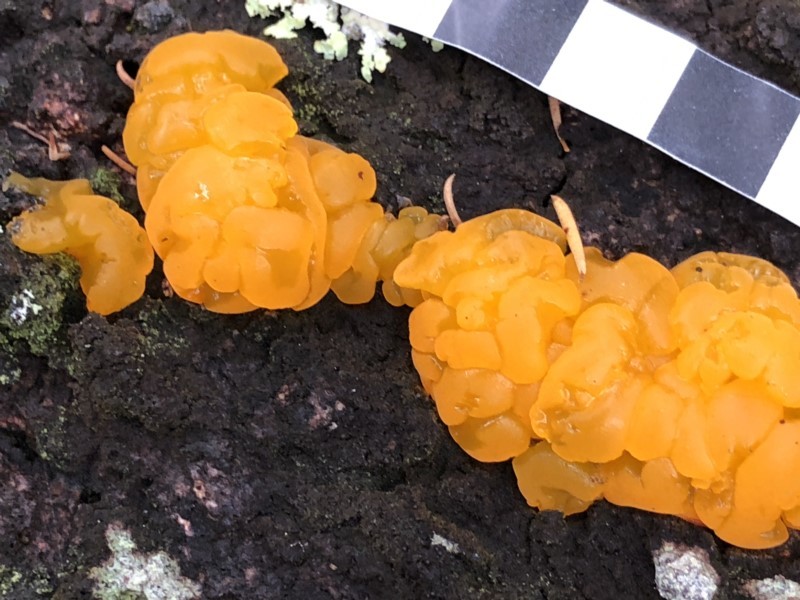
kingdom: Fungi
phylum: Basidiomycota
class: Tremellomycetes
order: Tremellales
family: Tremellaceae
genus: Tremella
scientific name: Tremella mesenterica
